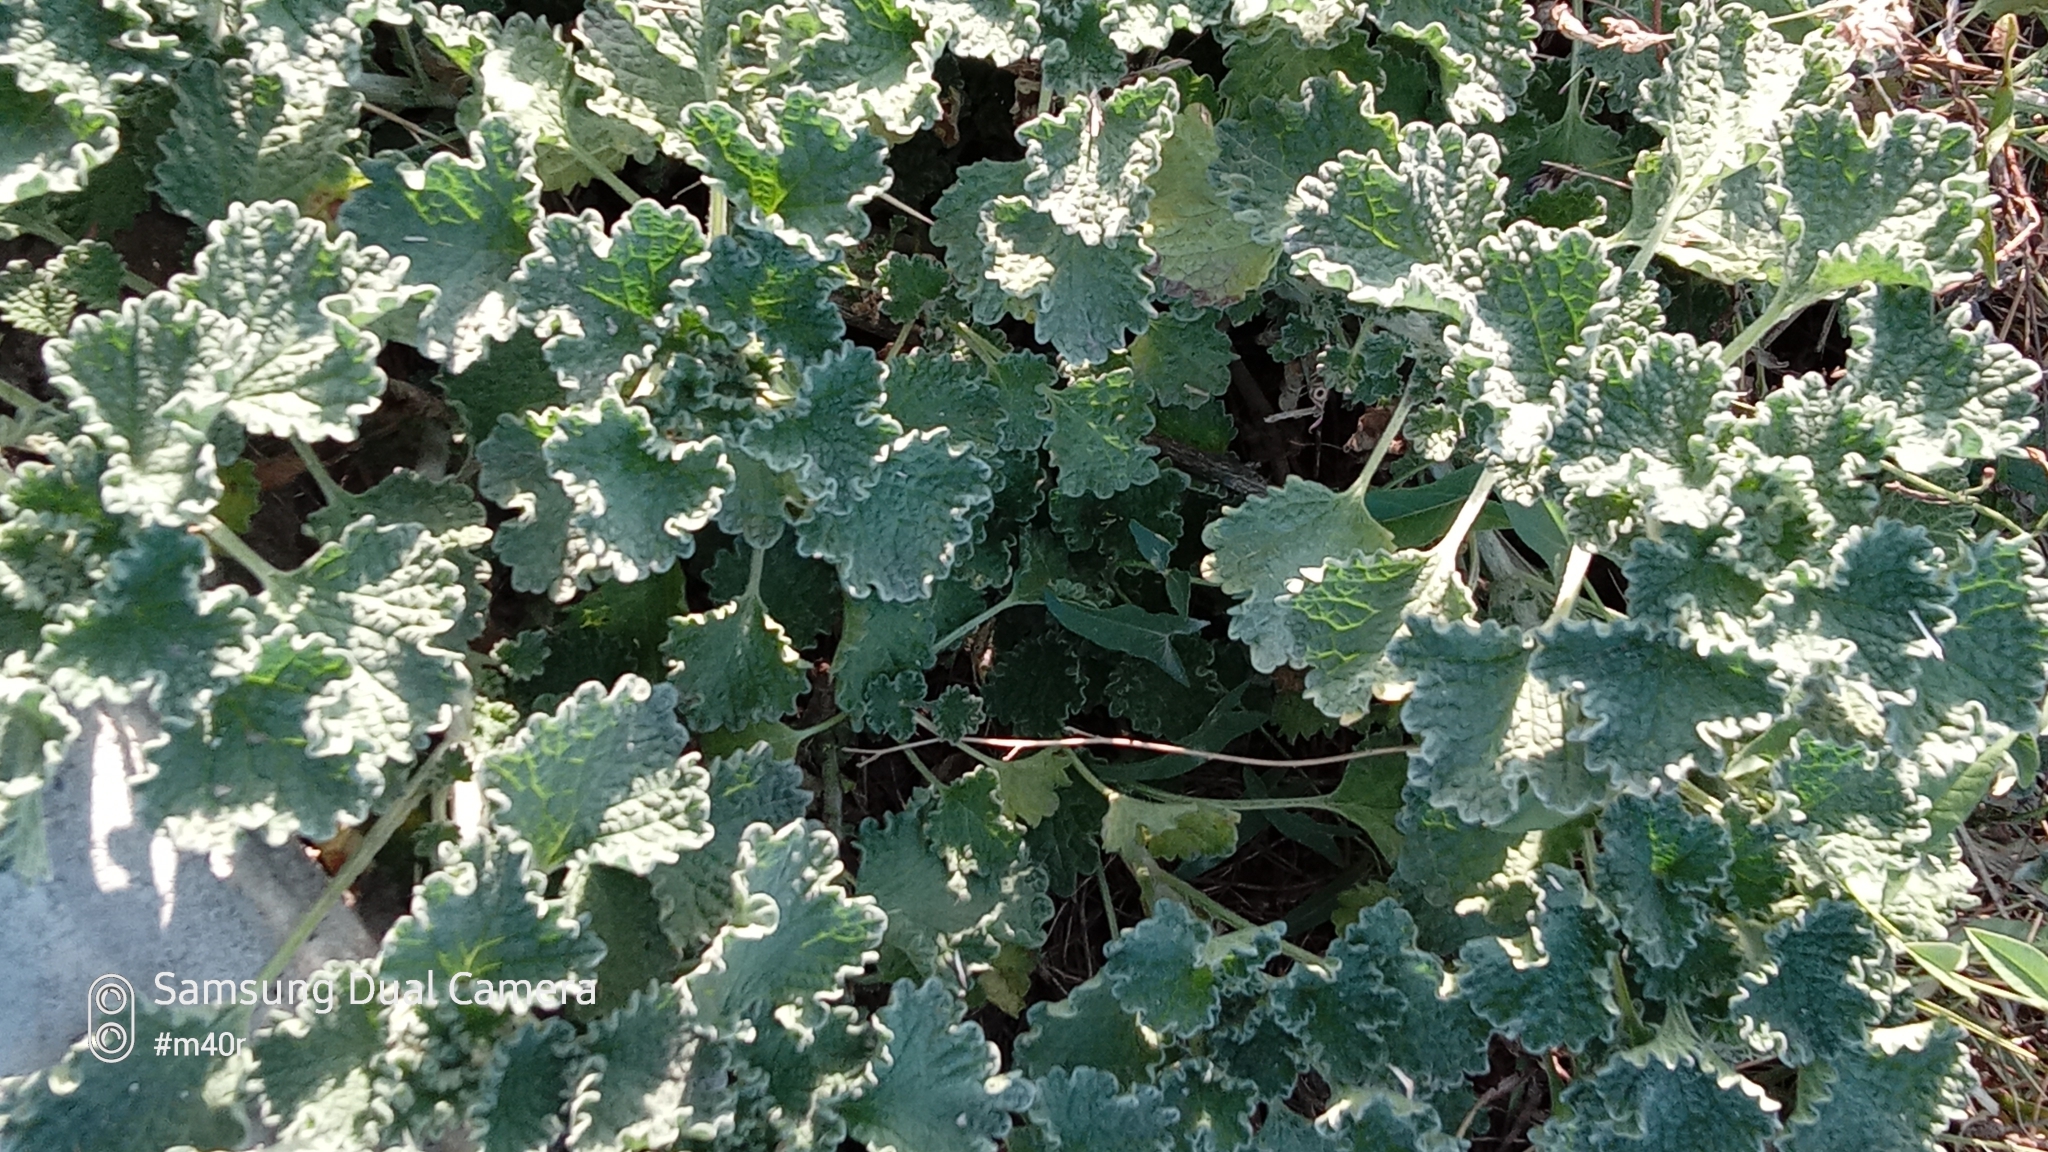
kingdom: Plantae
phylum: Tracheophyta
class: Magnoliopsida
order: Lamiales
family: Lamiaceae
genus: Marrubium
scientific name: Marrubium anisodon
